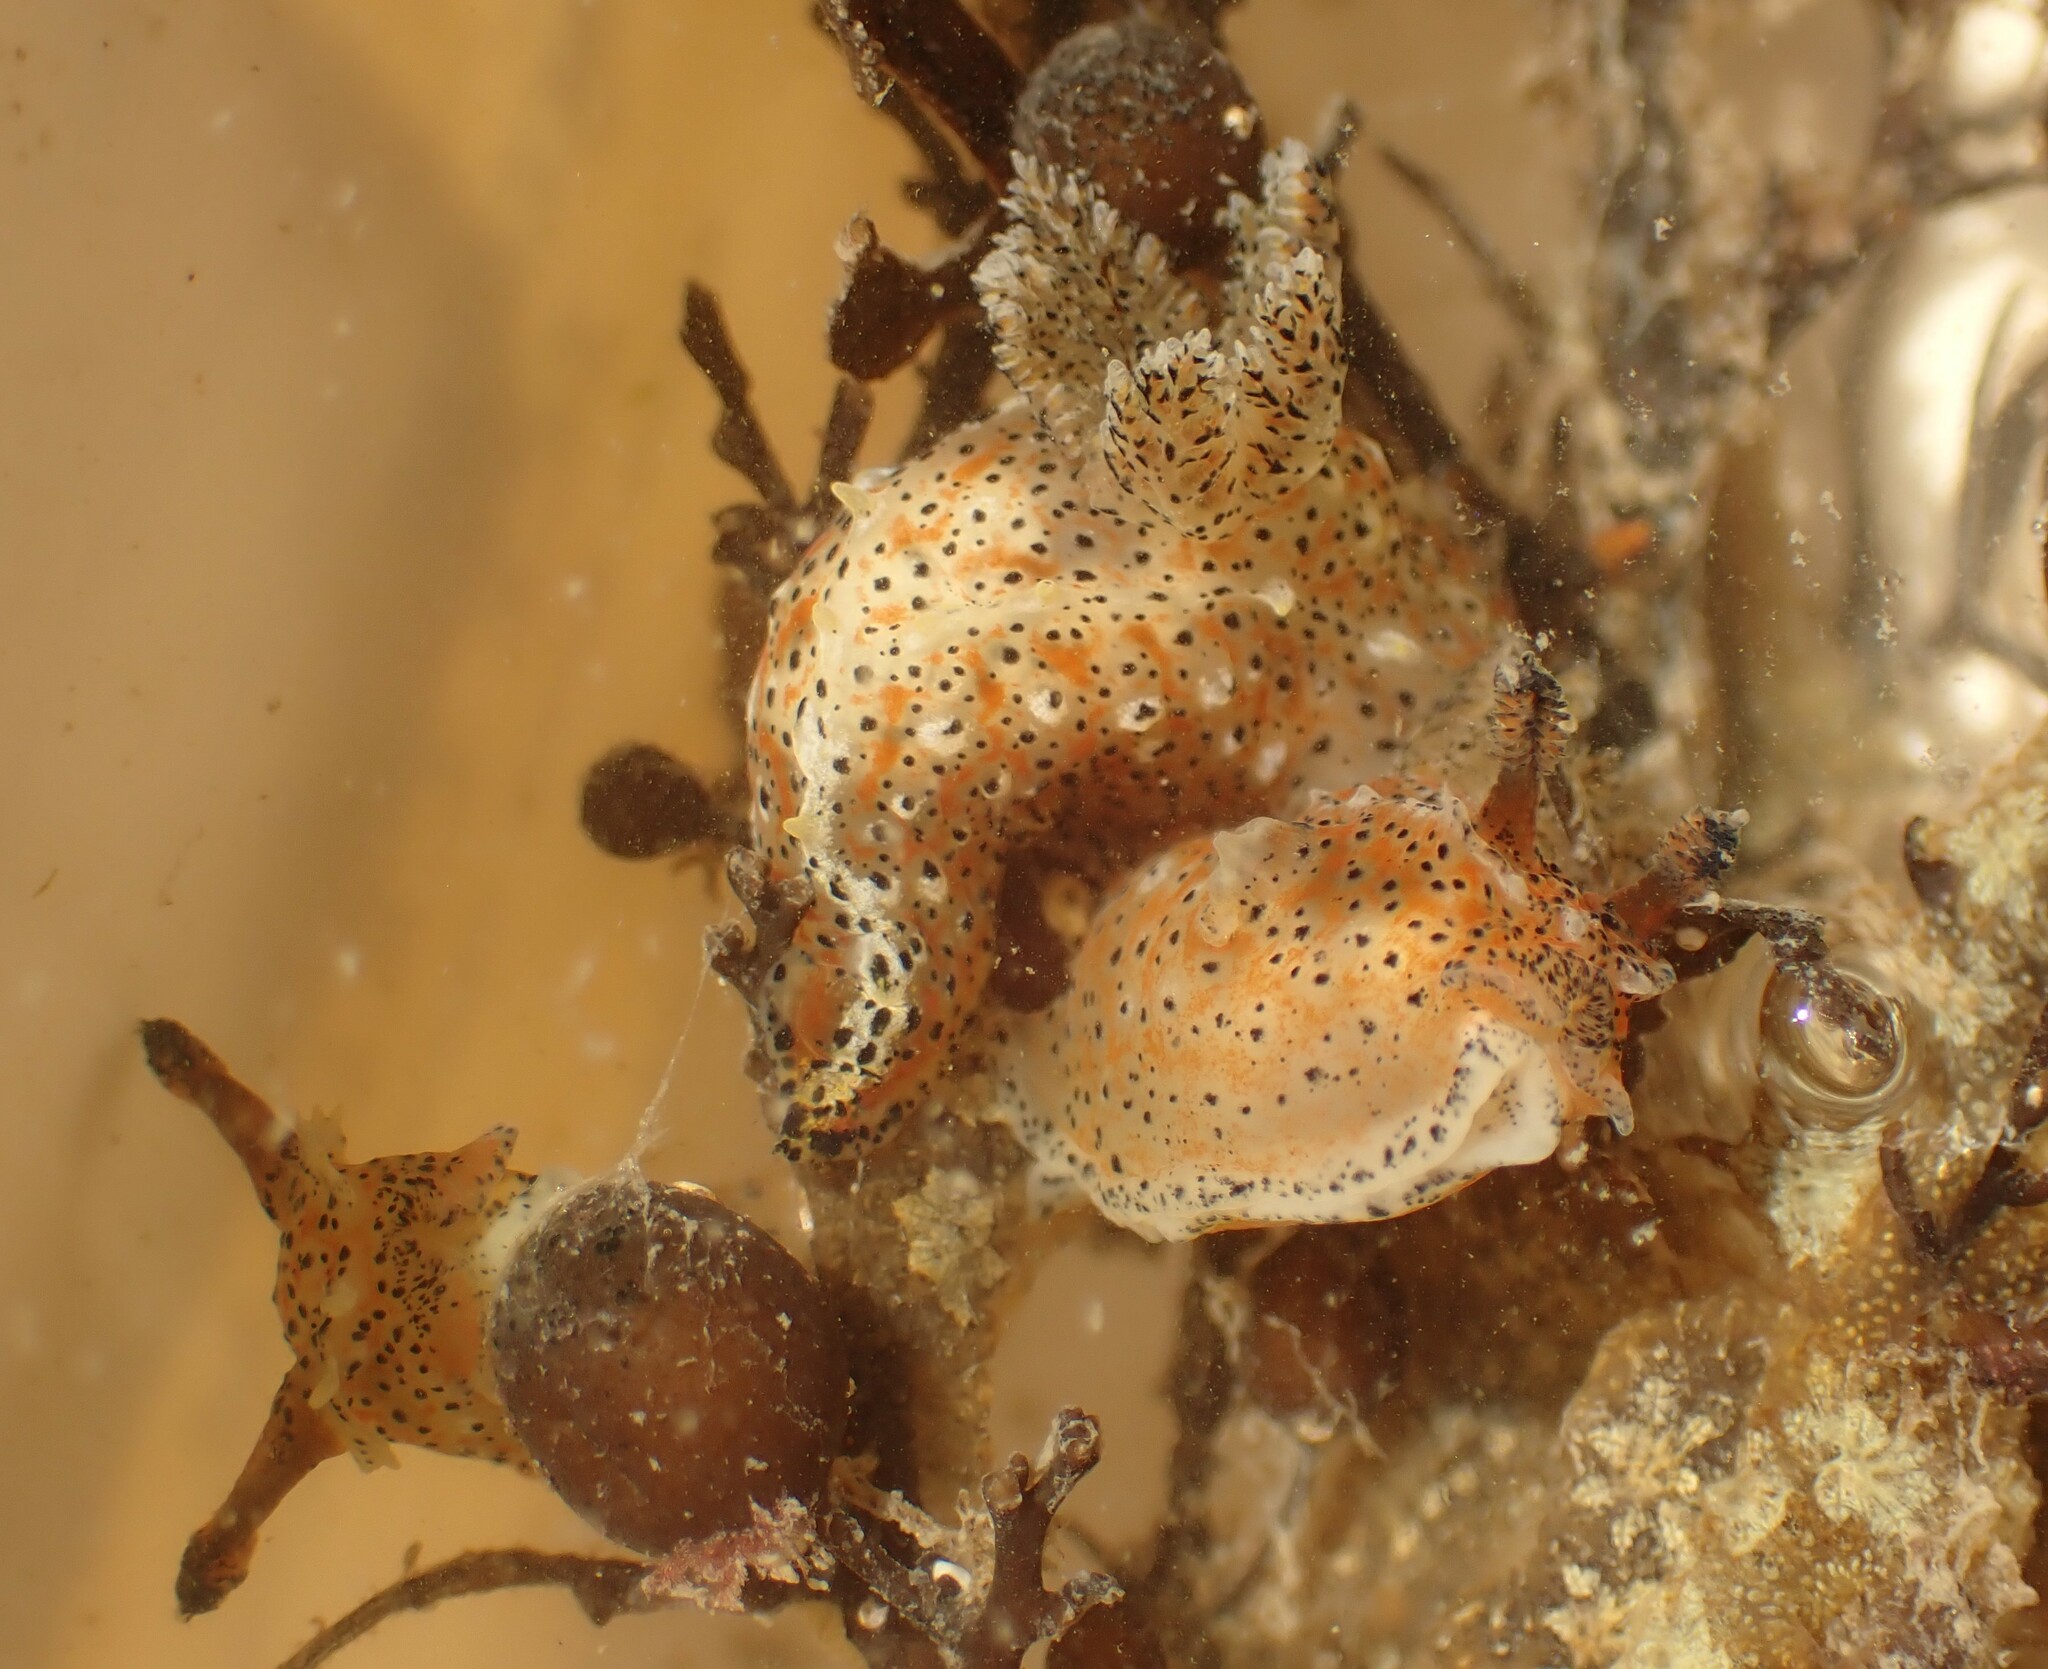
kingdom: Animalia
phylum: Mollusca
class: Gastropoda
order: Nudibranchia
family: Polyceridae
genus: Polycera
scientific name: Polycera fujitai
